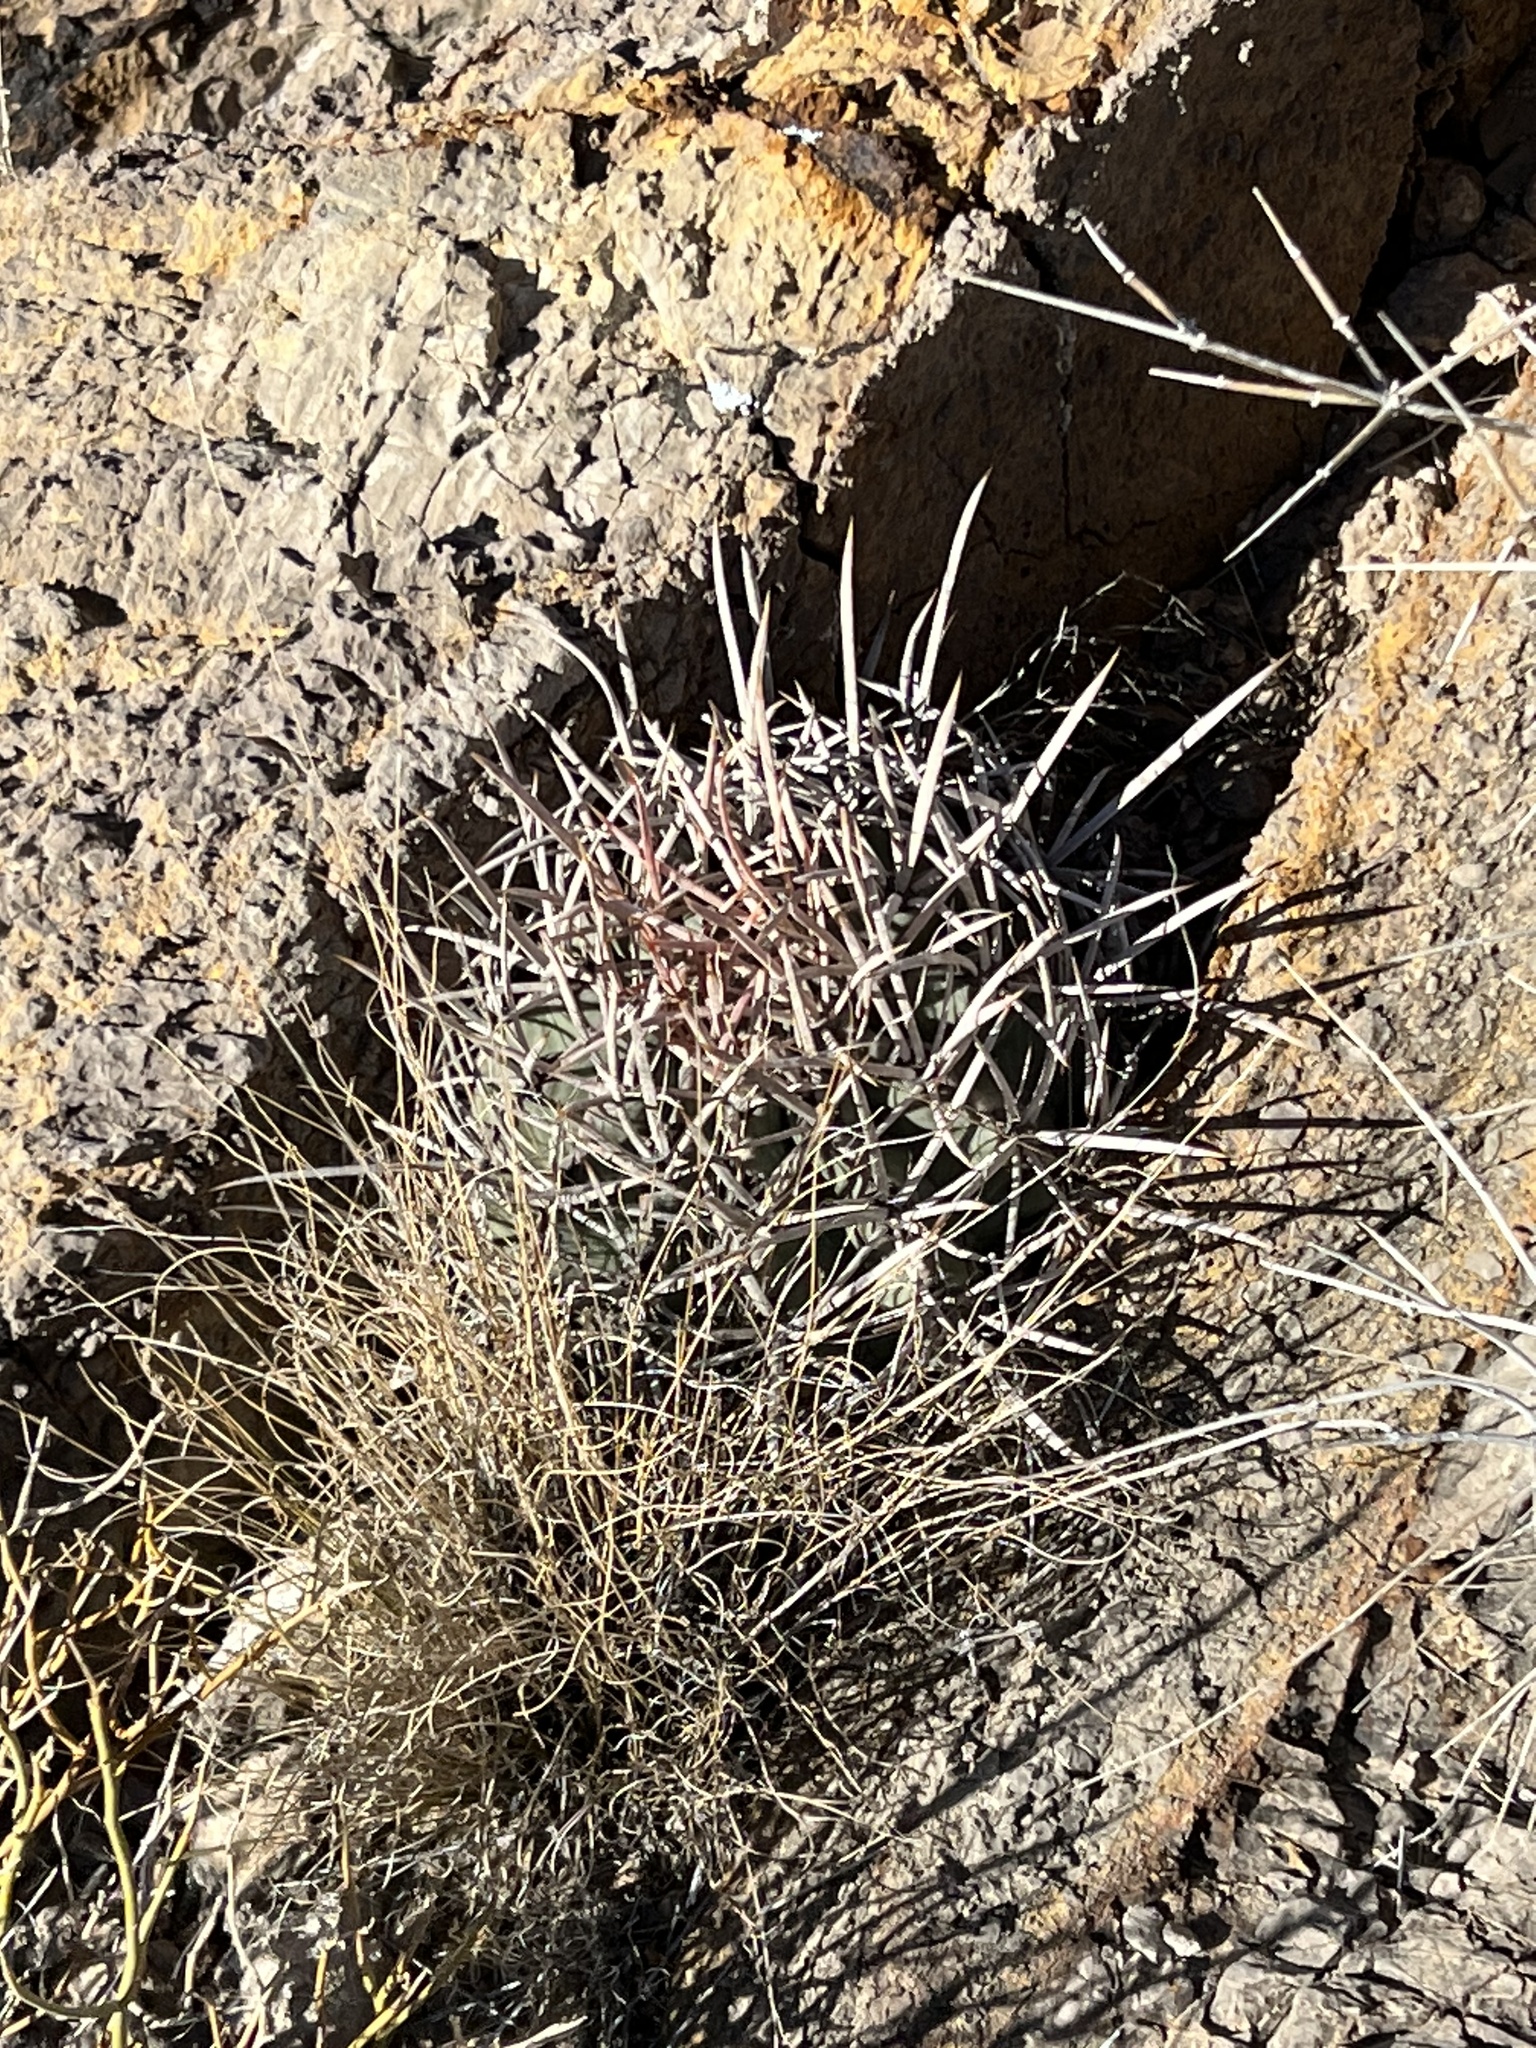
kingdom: Plantae
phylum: Tracheophyta
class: Magnoliopsida
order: Caryophyllales
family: Cactaceae
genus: Echinocactus
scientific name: Echinocactus polycephalus
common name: Cottontop cactus
